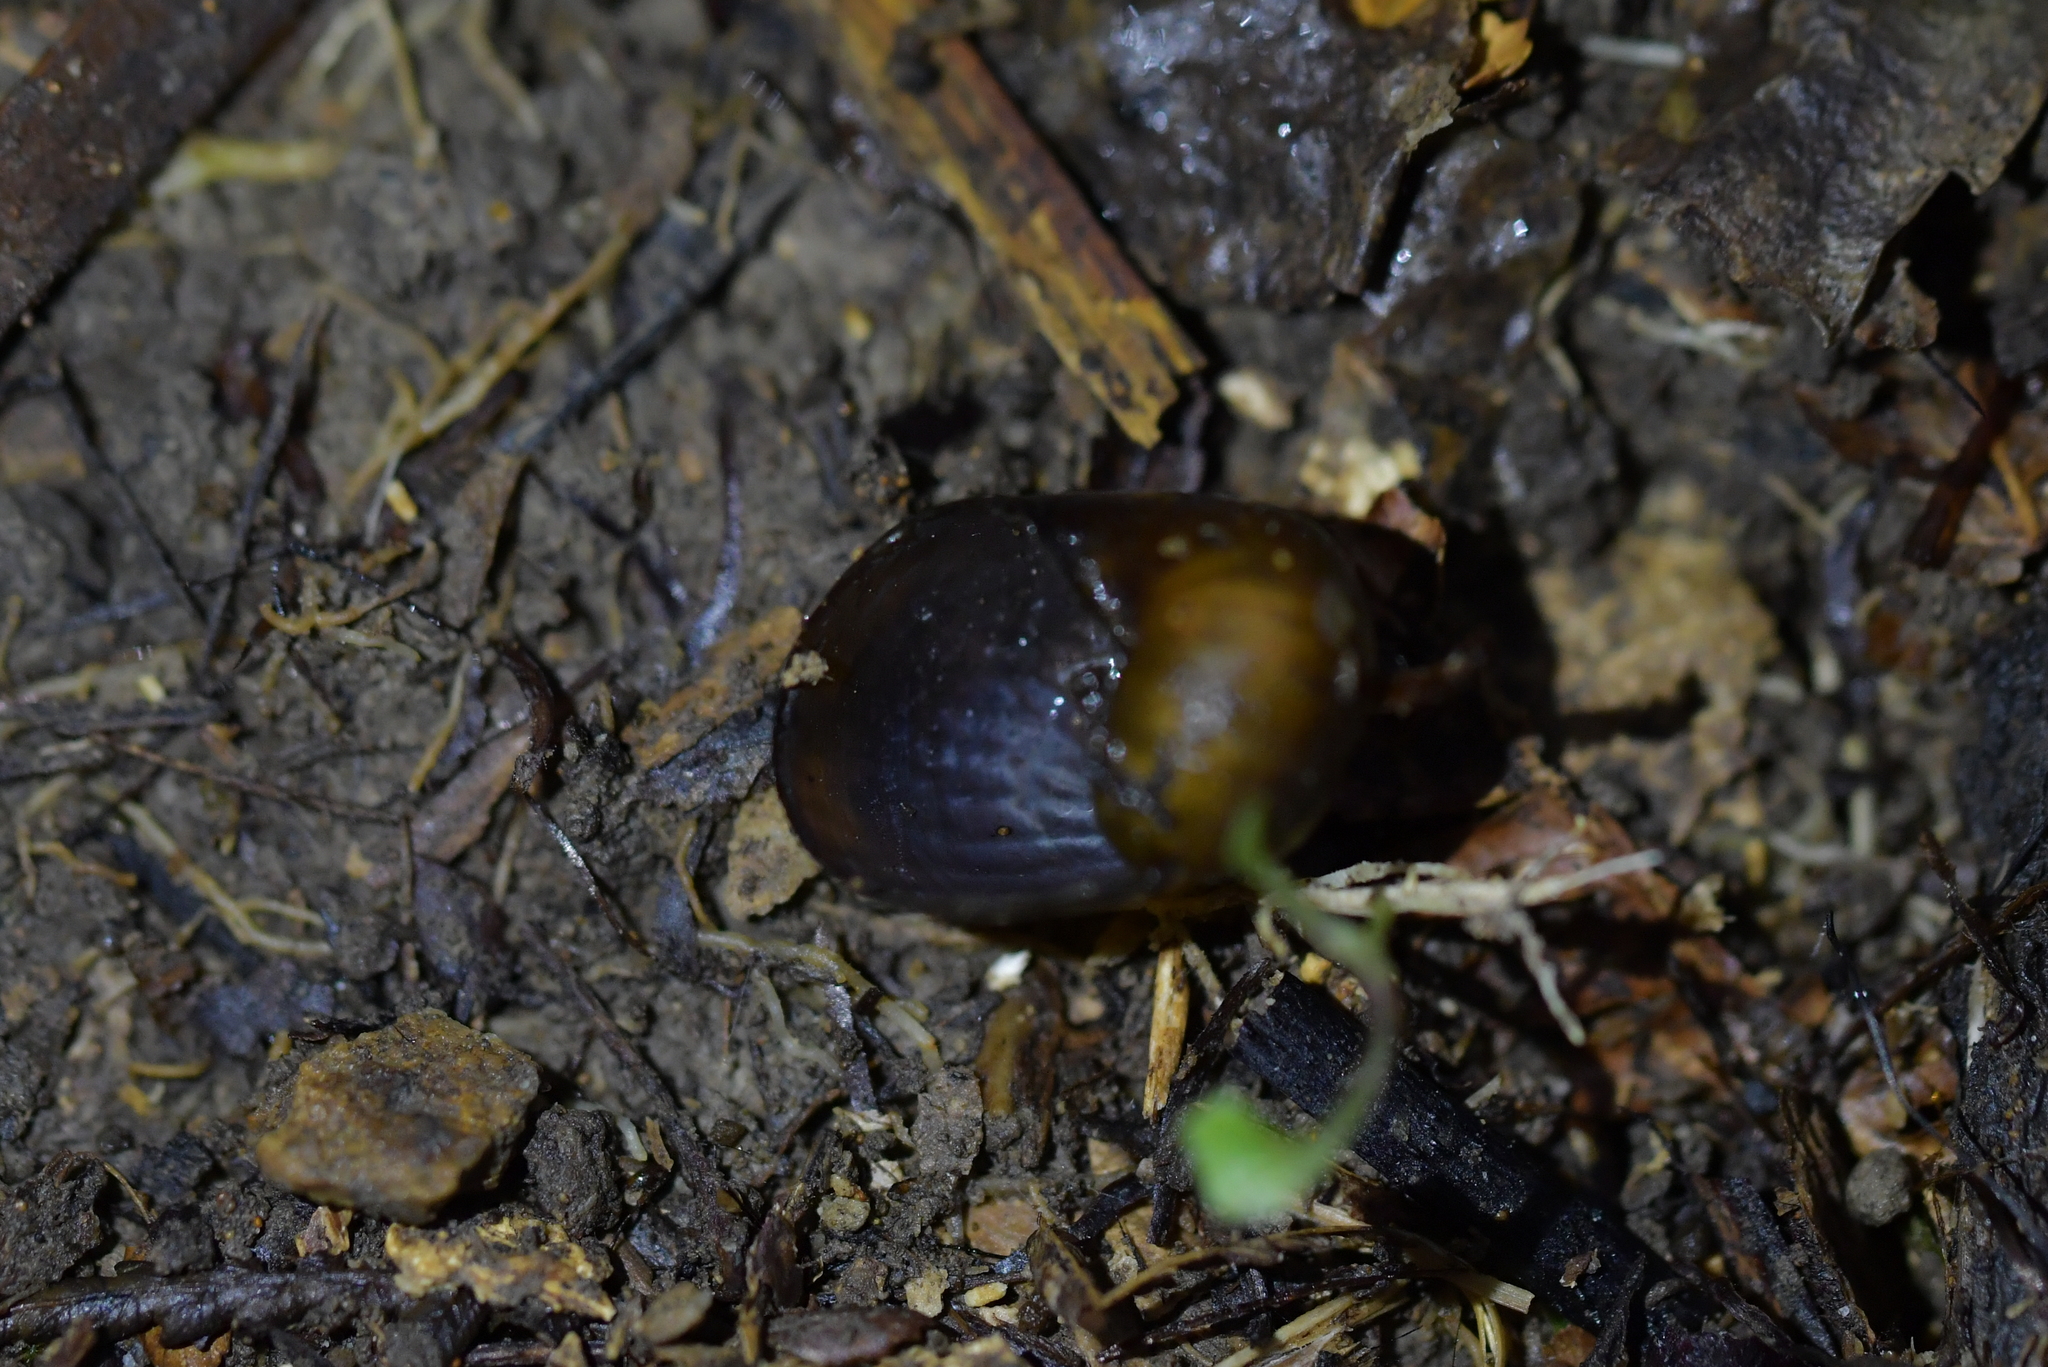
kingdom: Animalia
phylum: Mollusca
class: Gastropoda
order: Stylommatophora
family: Rhytididae
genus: Wainuia
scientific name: Wainuia urnula
